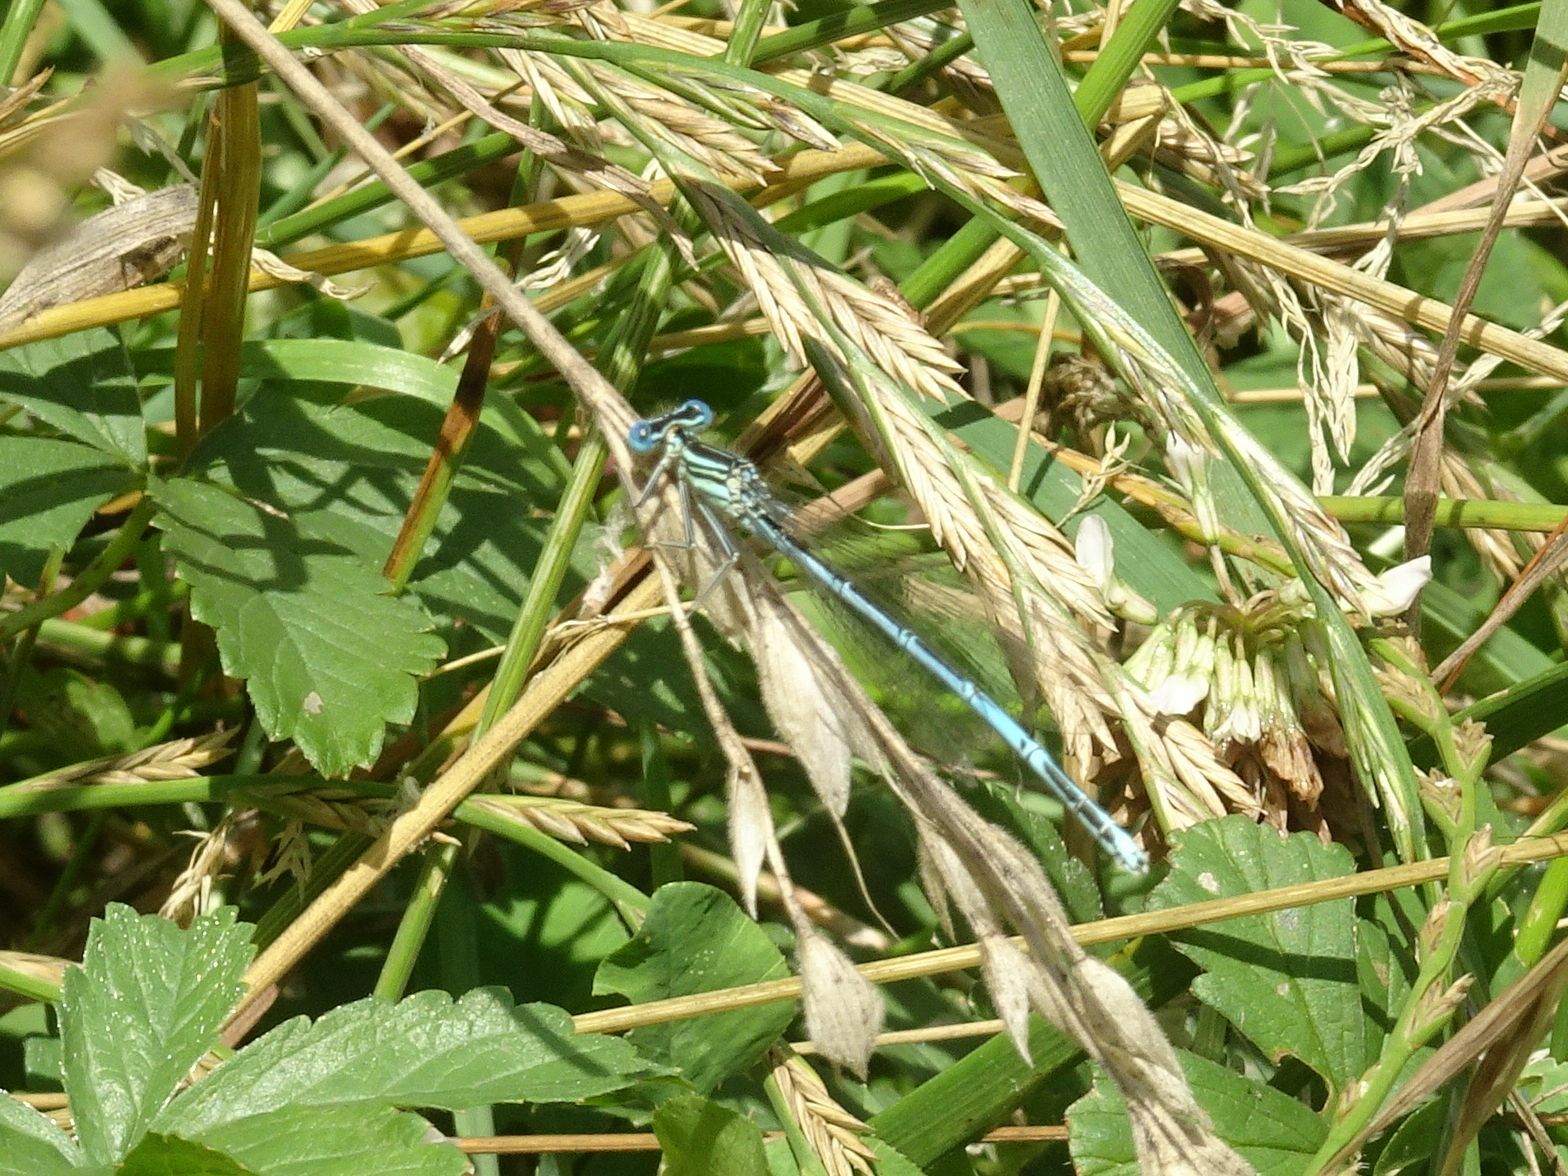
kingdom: Animalia
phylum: Arthropoda
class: Insecta
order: Odonata
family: Platycnemididae
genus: Platycnemis
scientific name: Platycnemis pennipes
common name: White-legged damselfly
